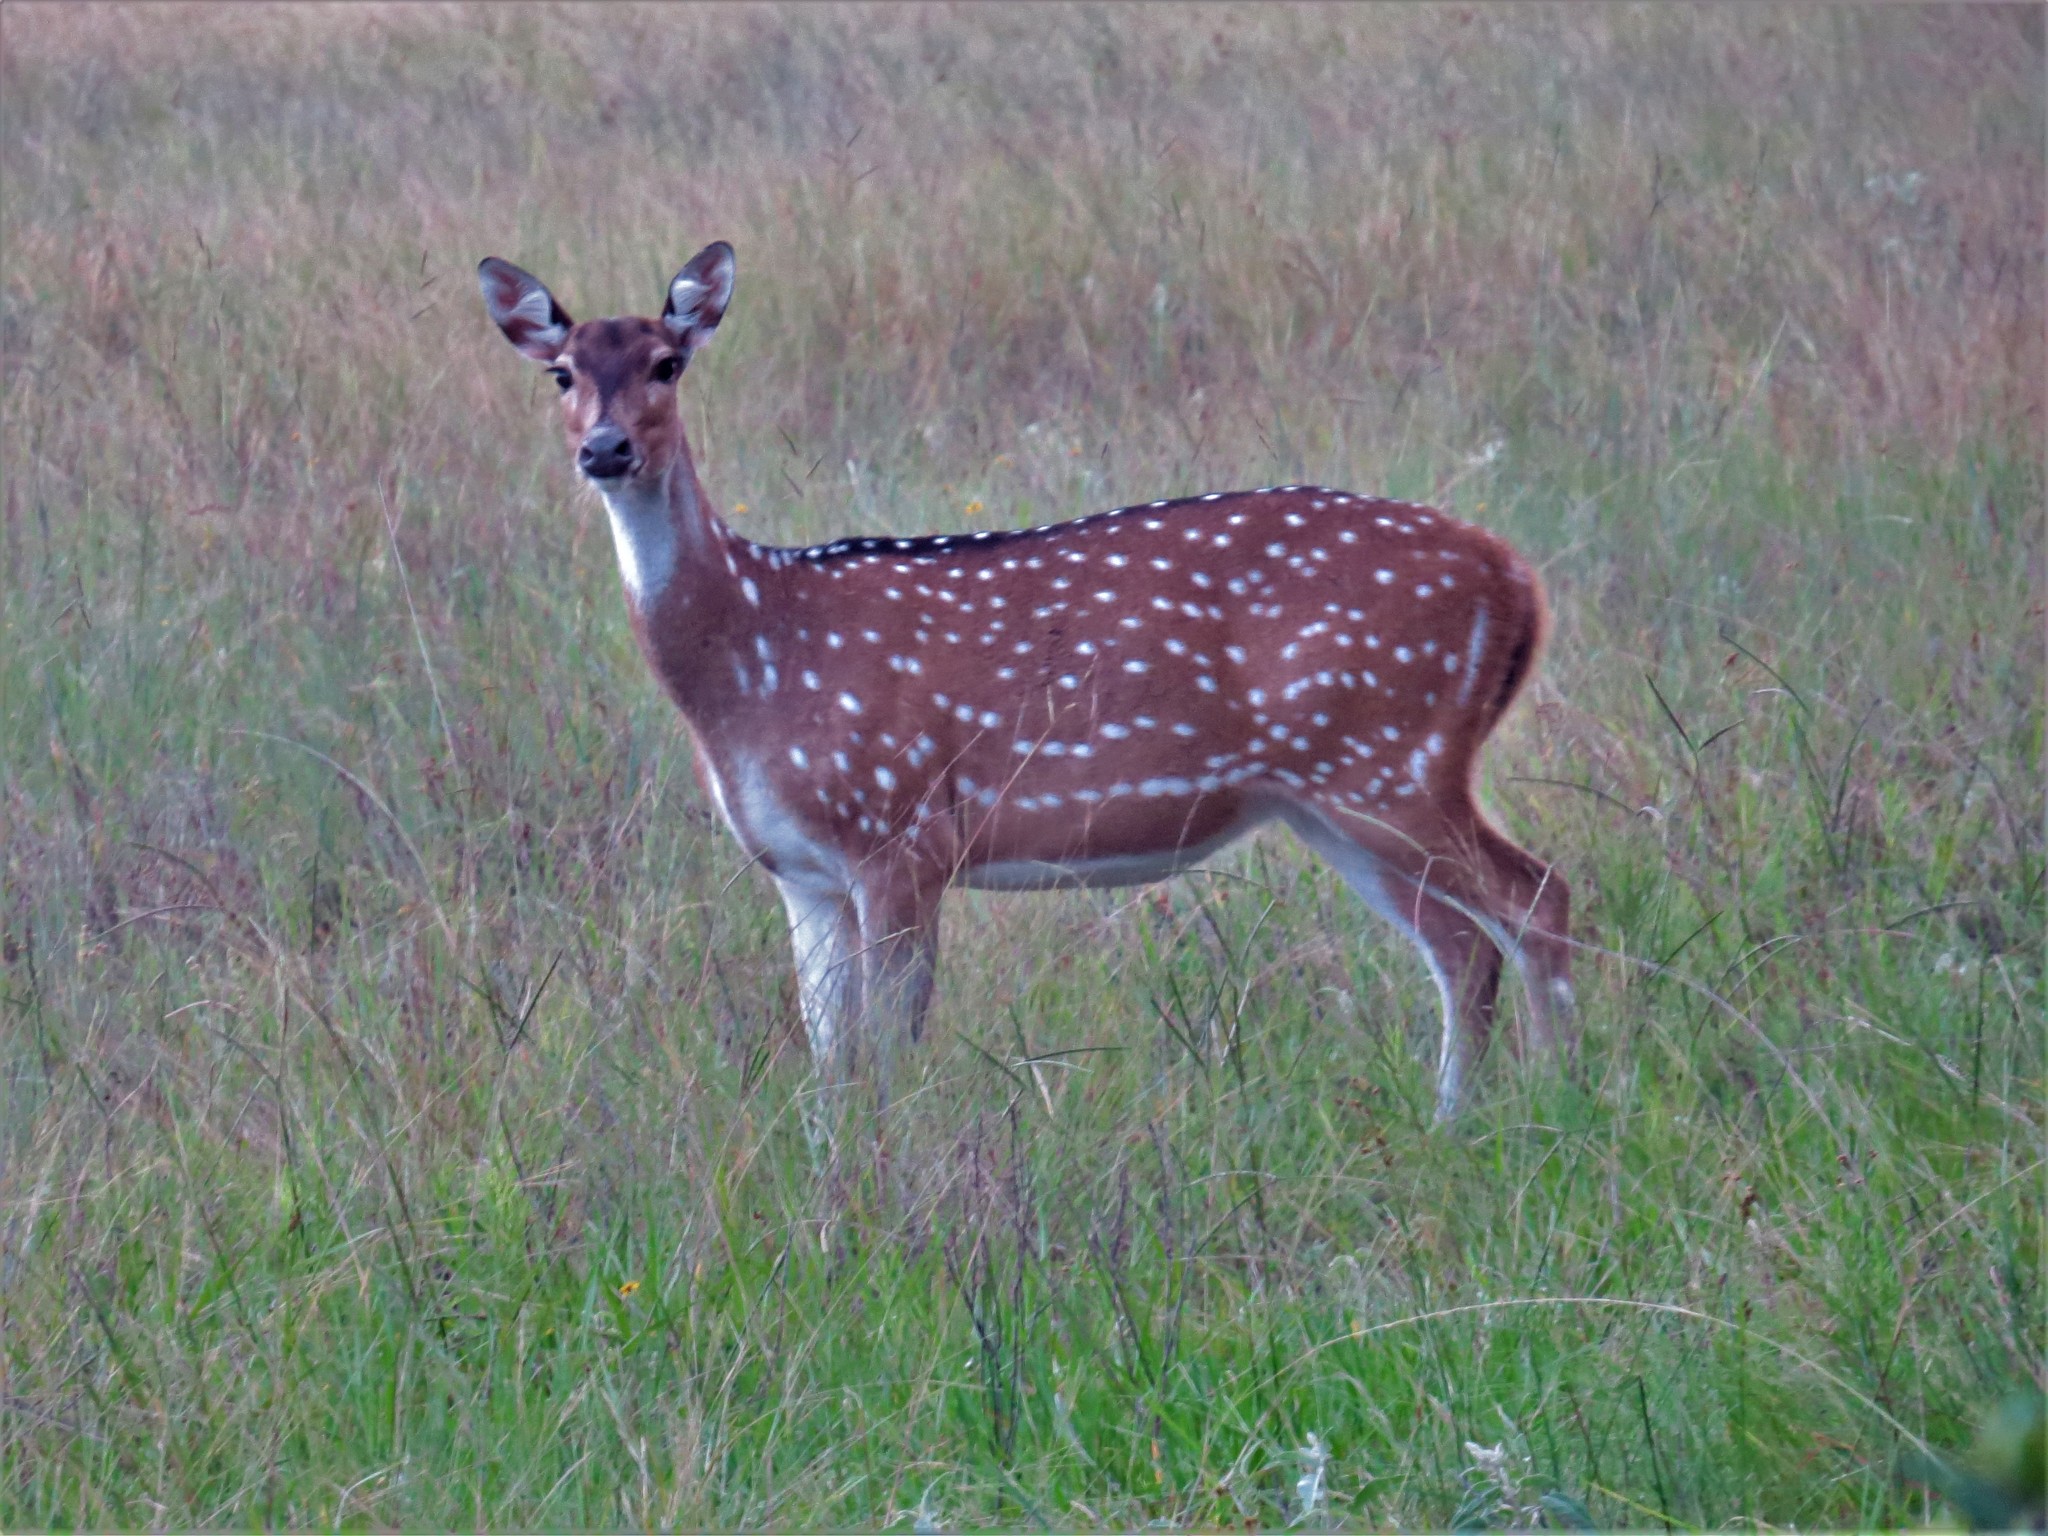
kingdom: Animalia
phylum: Chordata
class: Mammalia
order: Artiodactyla
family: Cervidae
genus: Axis
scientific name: Axis axis
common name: Chital
